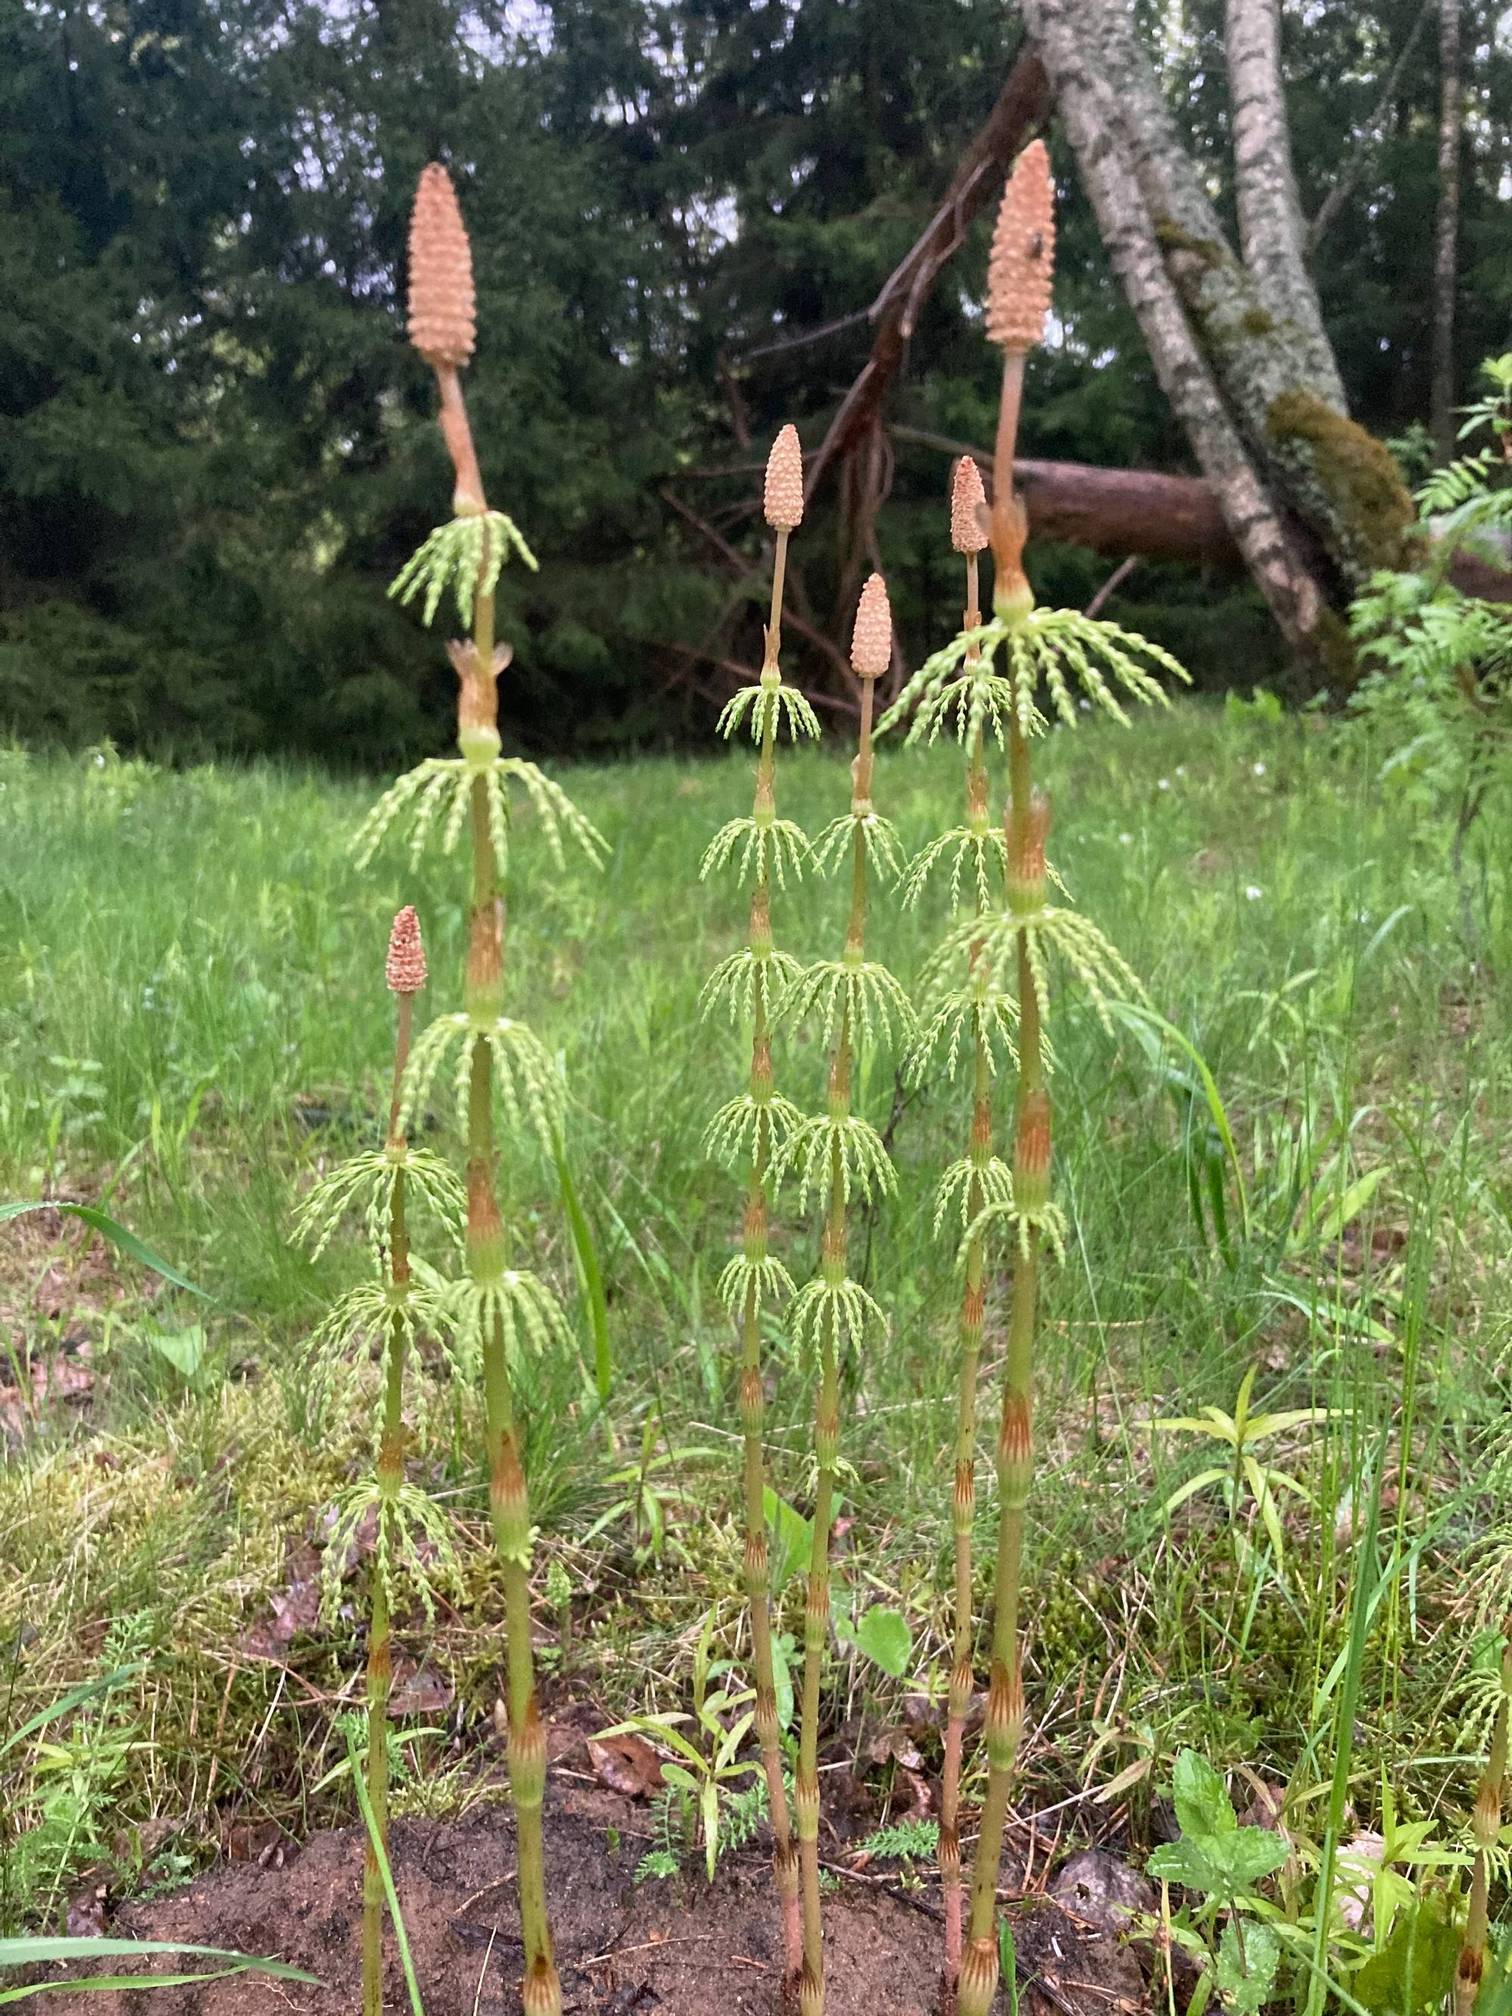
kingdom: Plantae
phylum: Tracheophyta
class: Polypodiopsida
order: Equisetales
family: Equisetaceae
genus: Equisetum
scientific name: Equisetum sylvaticum
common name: Wood horsetail
